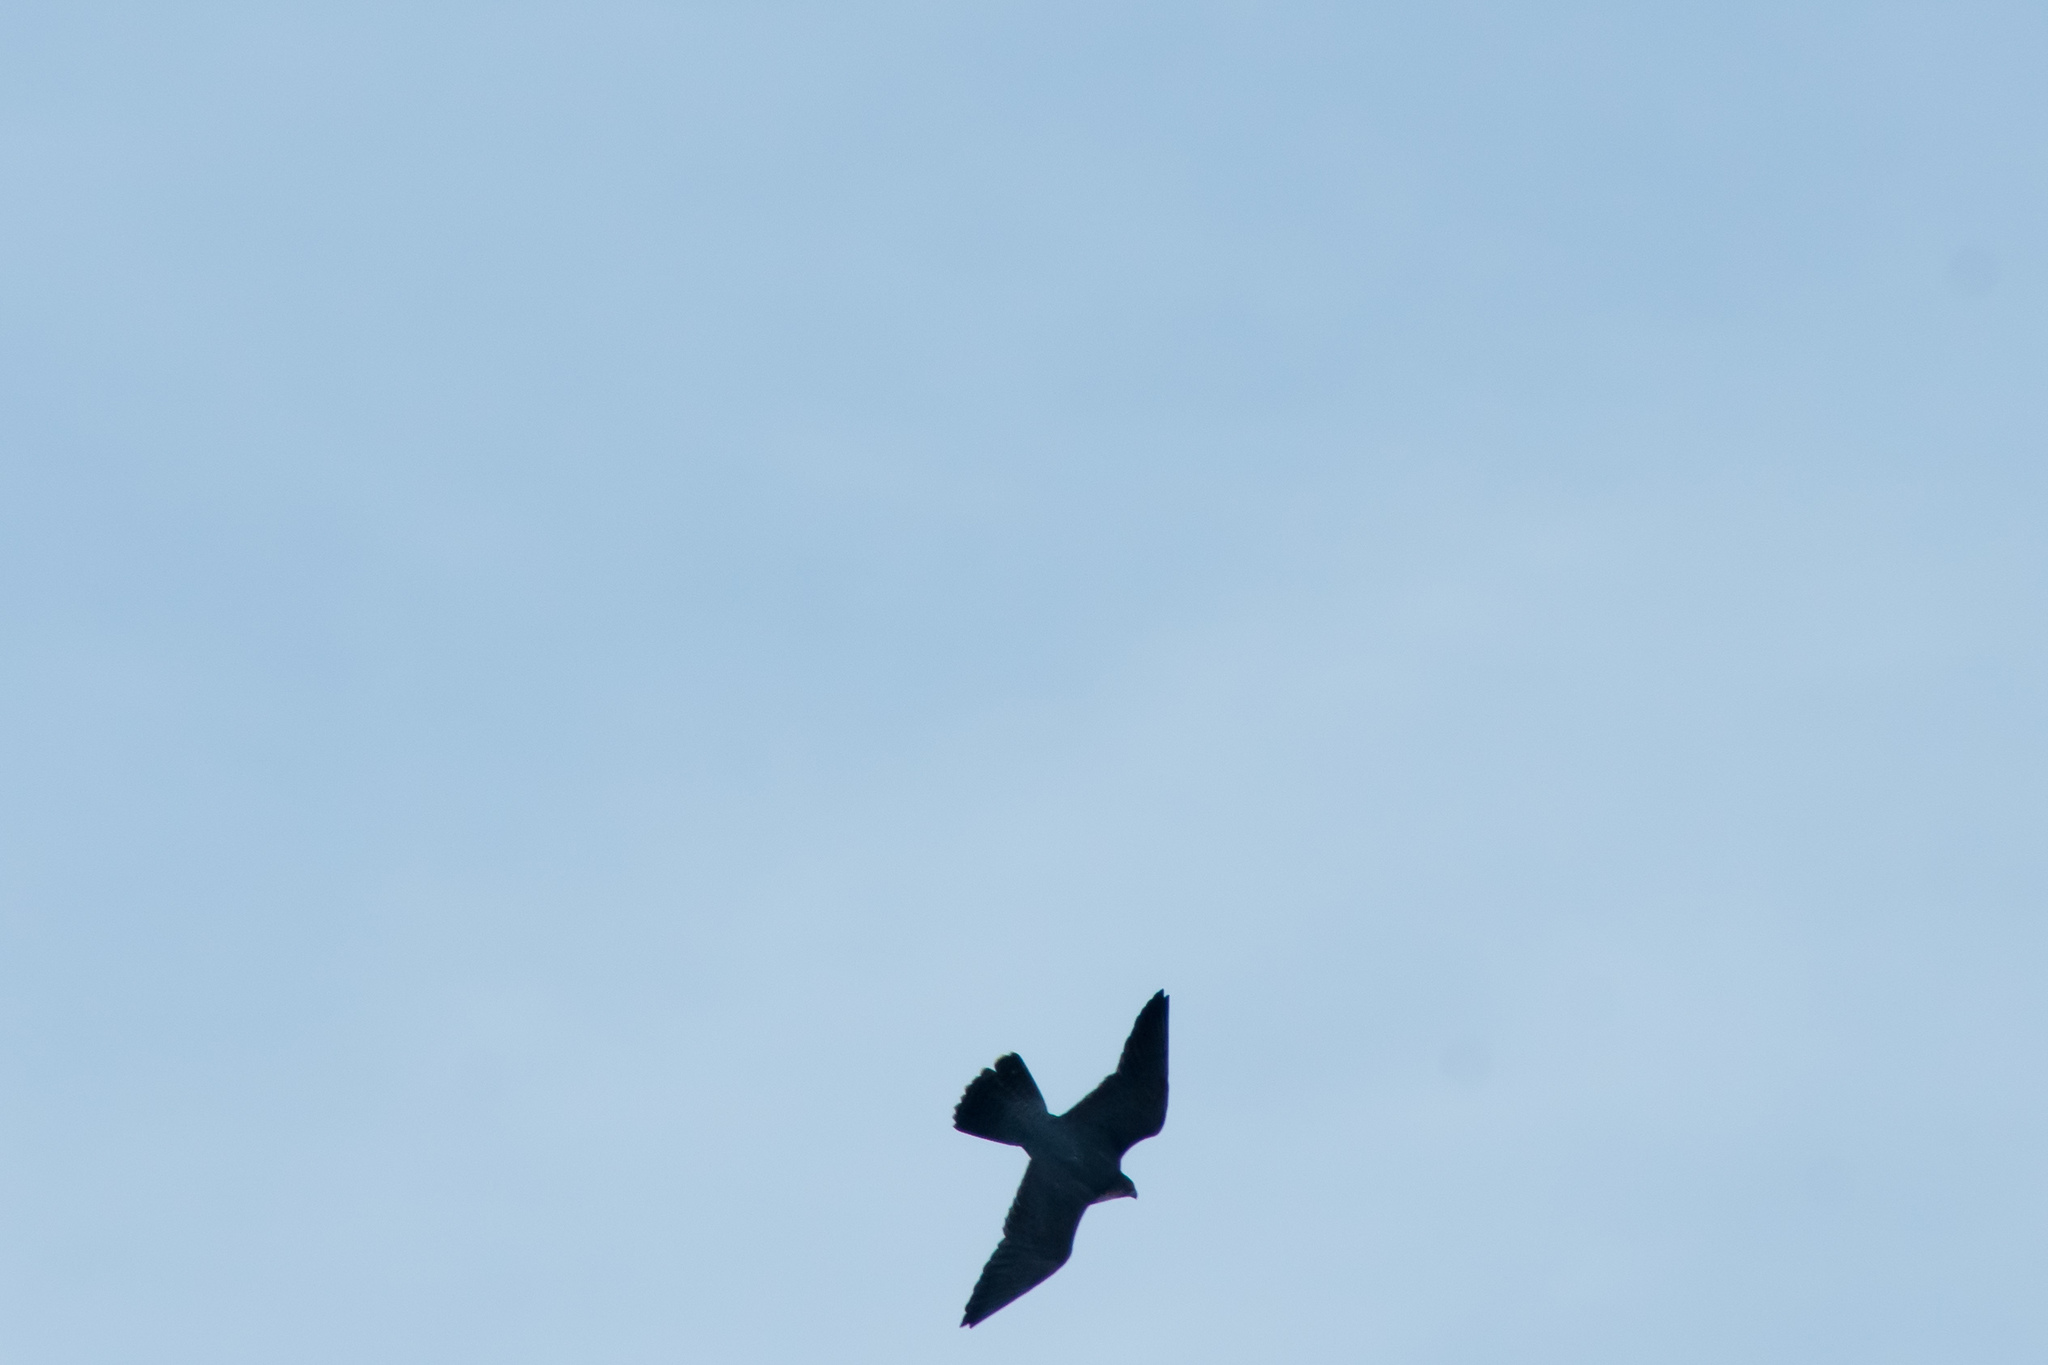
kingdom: Animalia
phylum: Chordata
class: Aves
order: Falconiformes
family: Falconidae
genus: Falco
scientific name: Falco peregrinus
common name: Peregrine falcon
